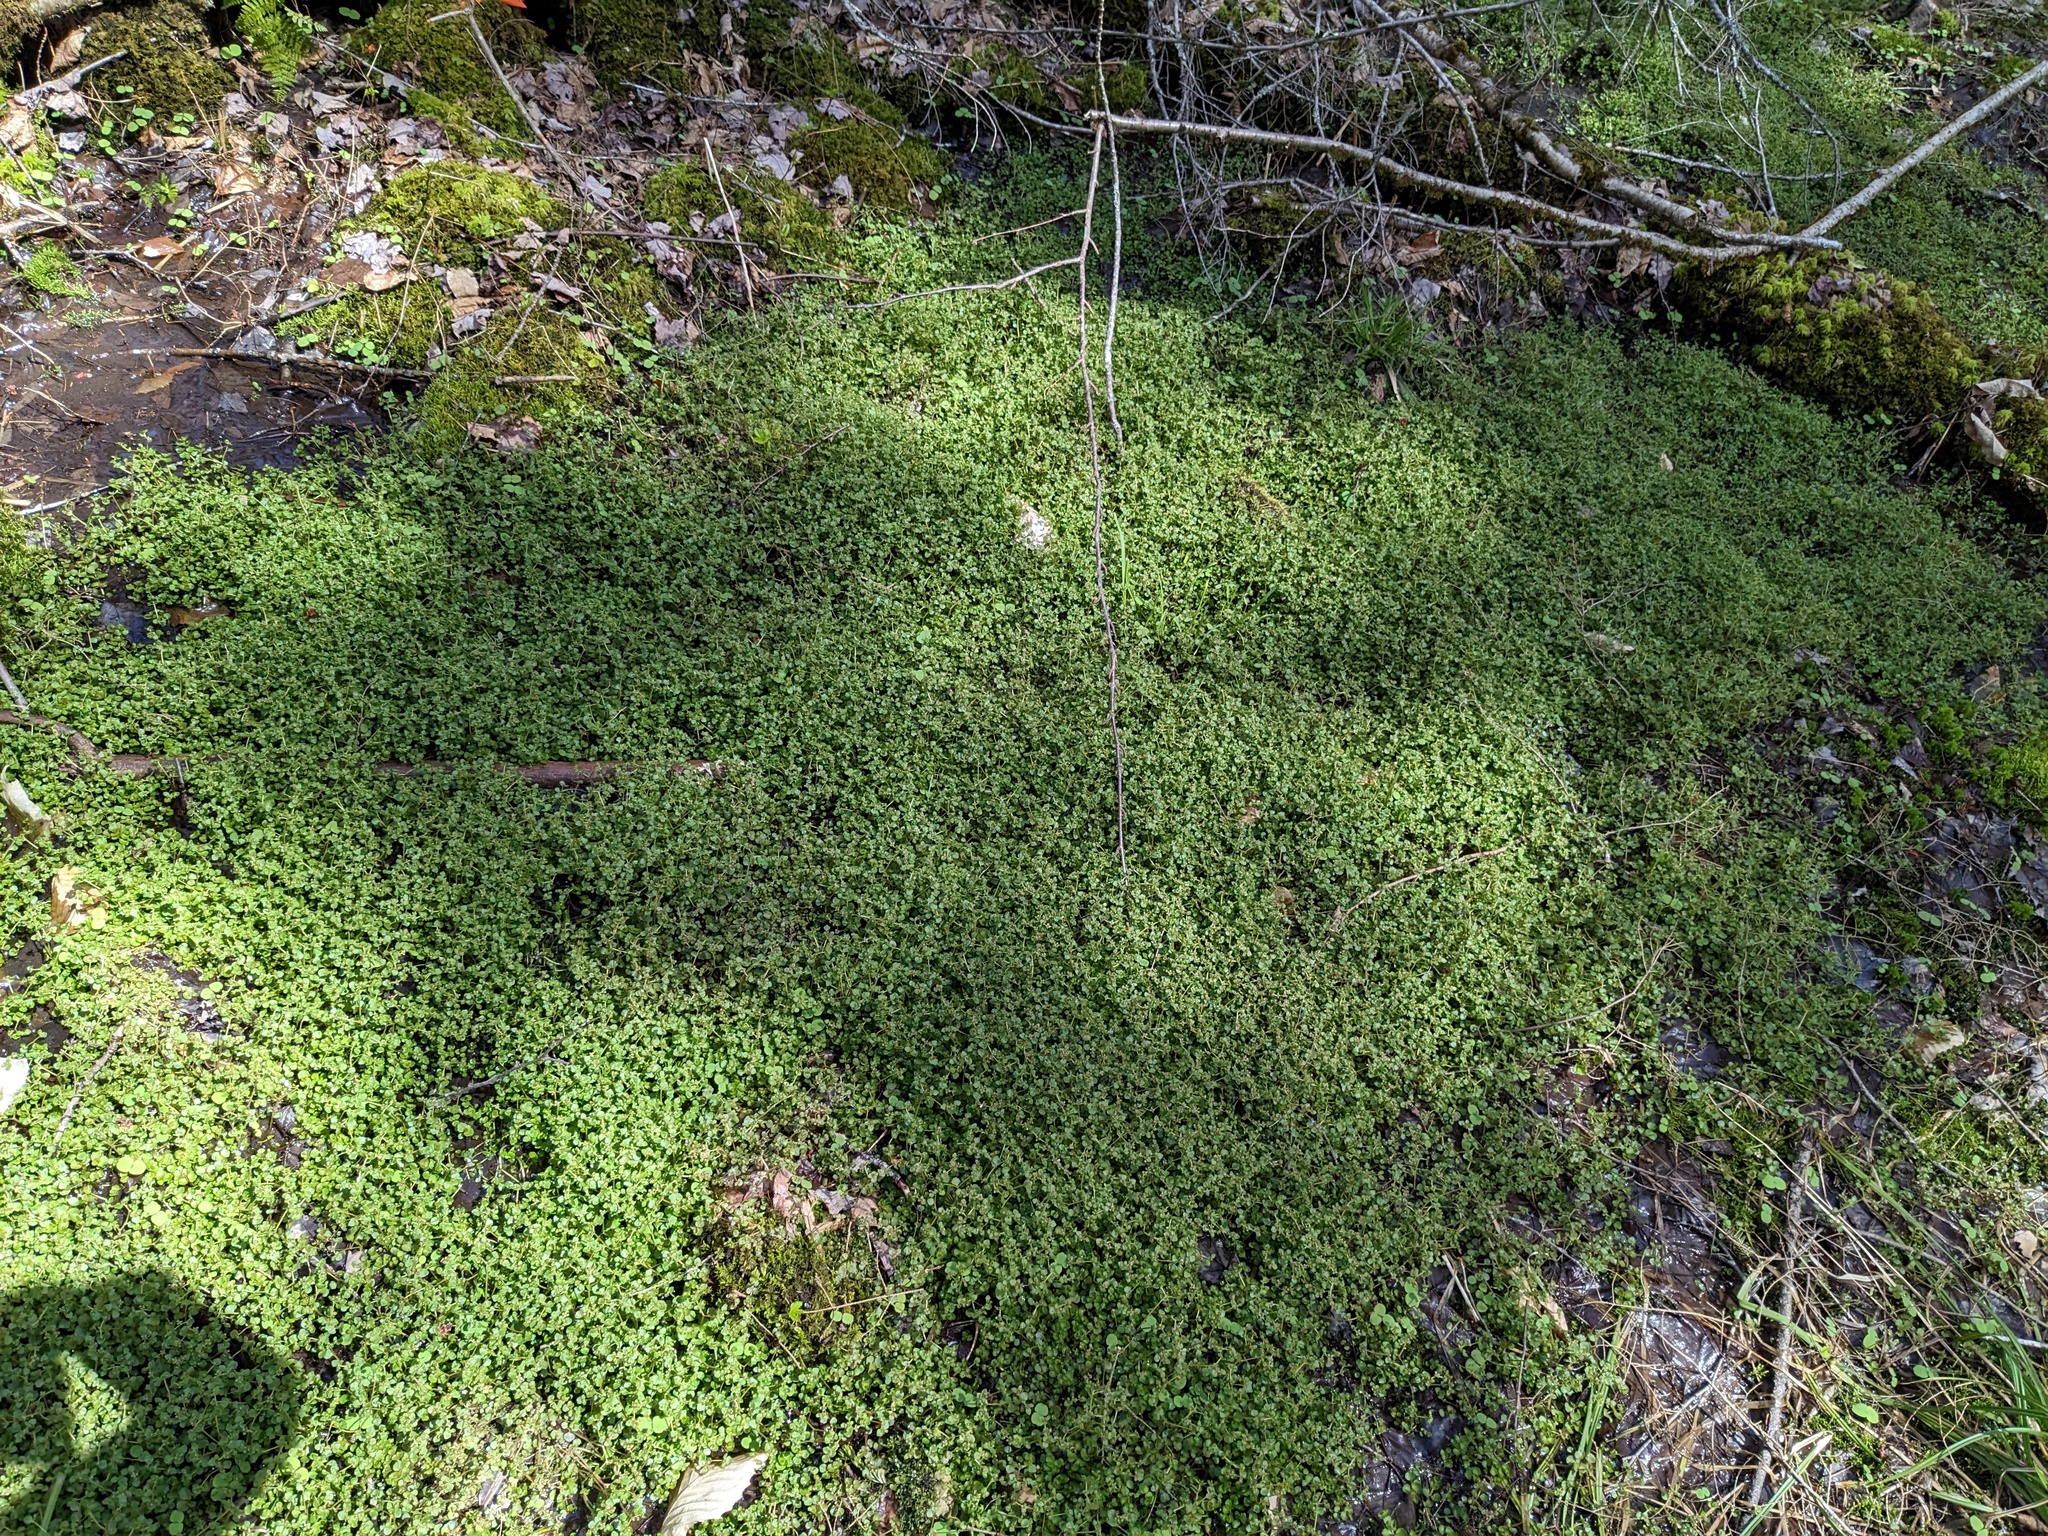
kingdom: Plantae
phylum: Tracheophyta
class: Magnoliopsida
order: Saxifragales
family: Saxifragaceae
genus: Chrysosplenium
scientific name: Chrysosplenium americanum
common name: American golden-saxifrage
